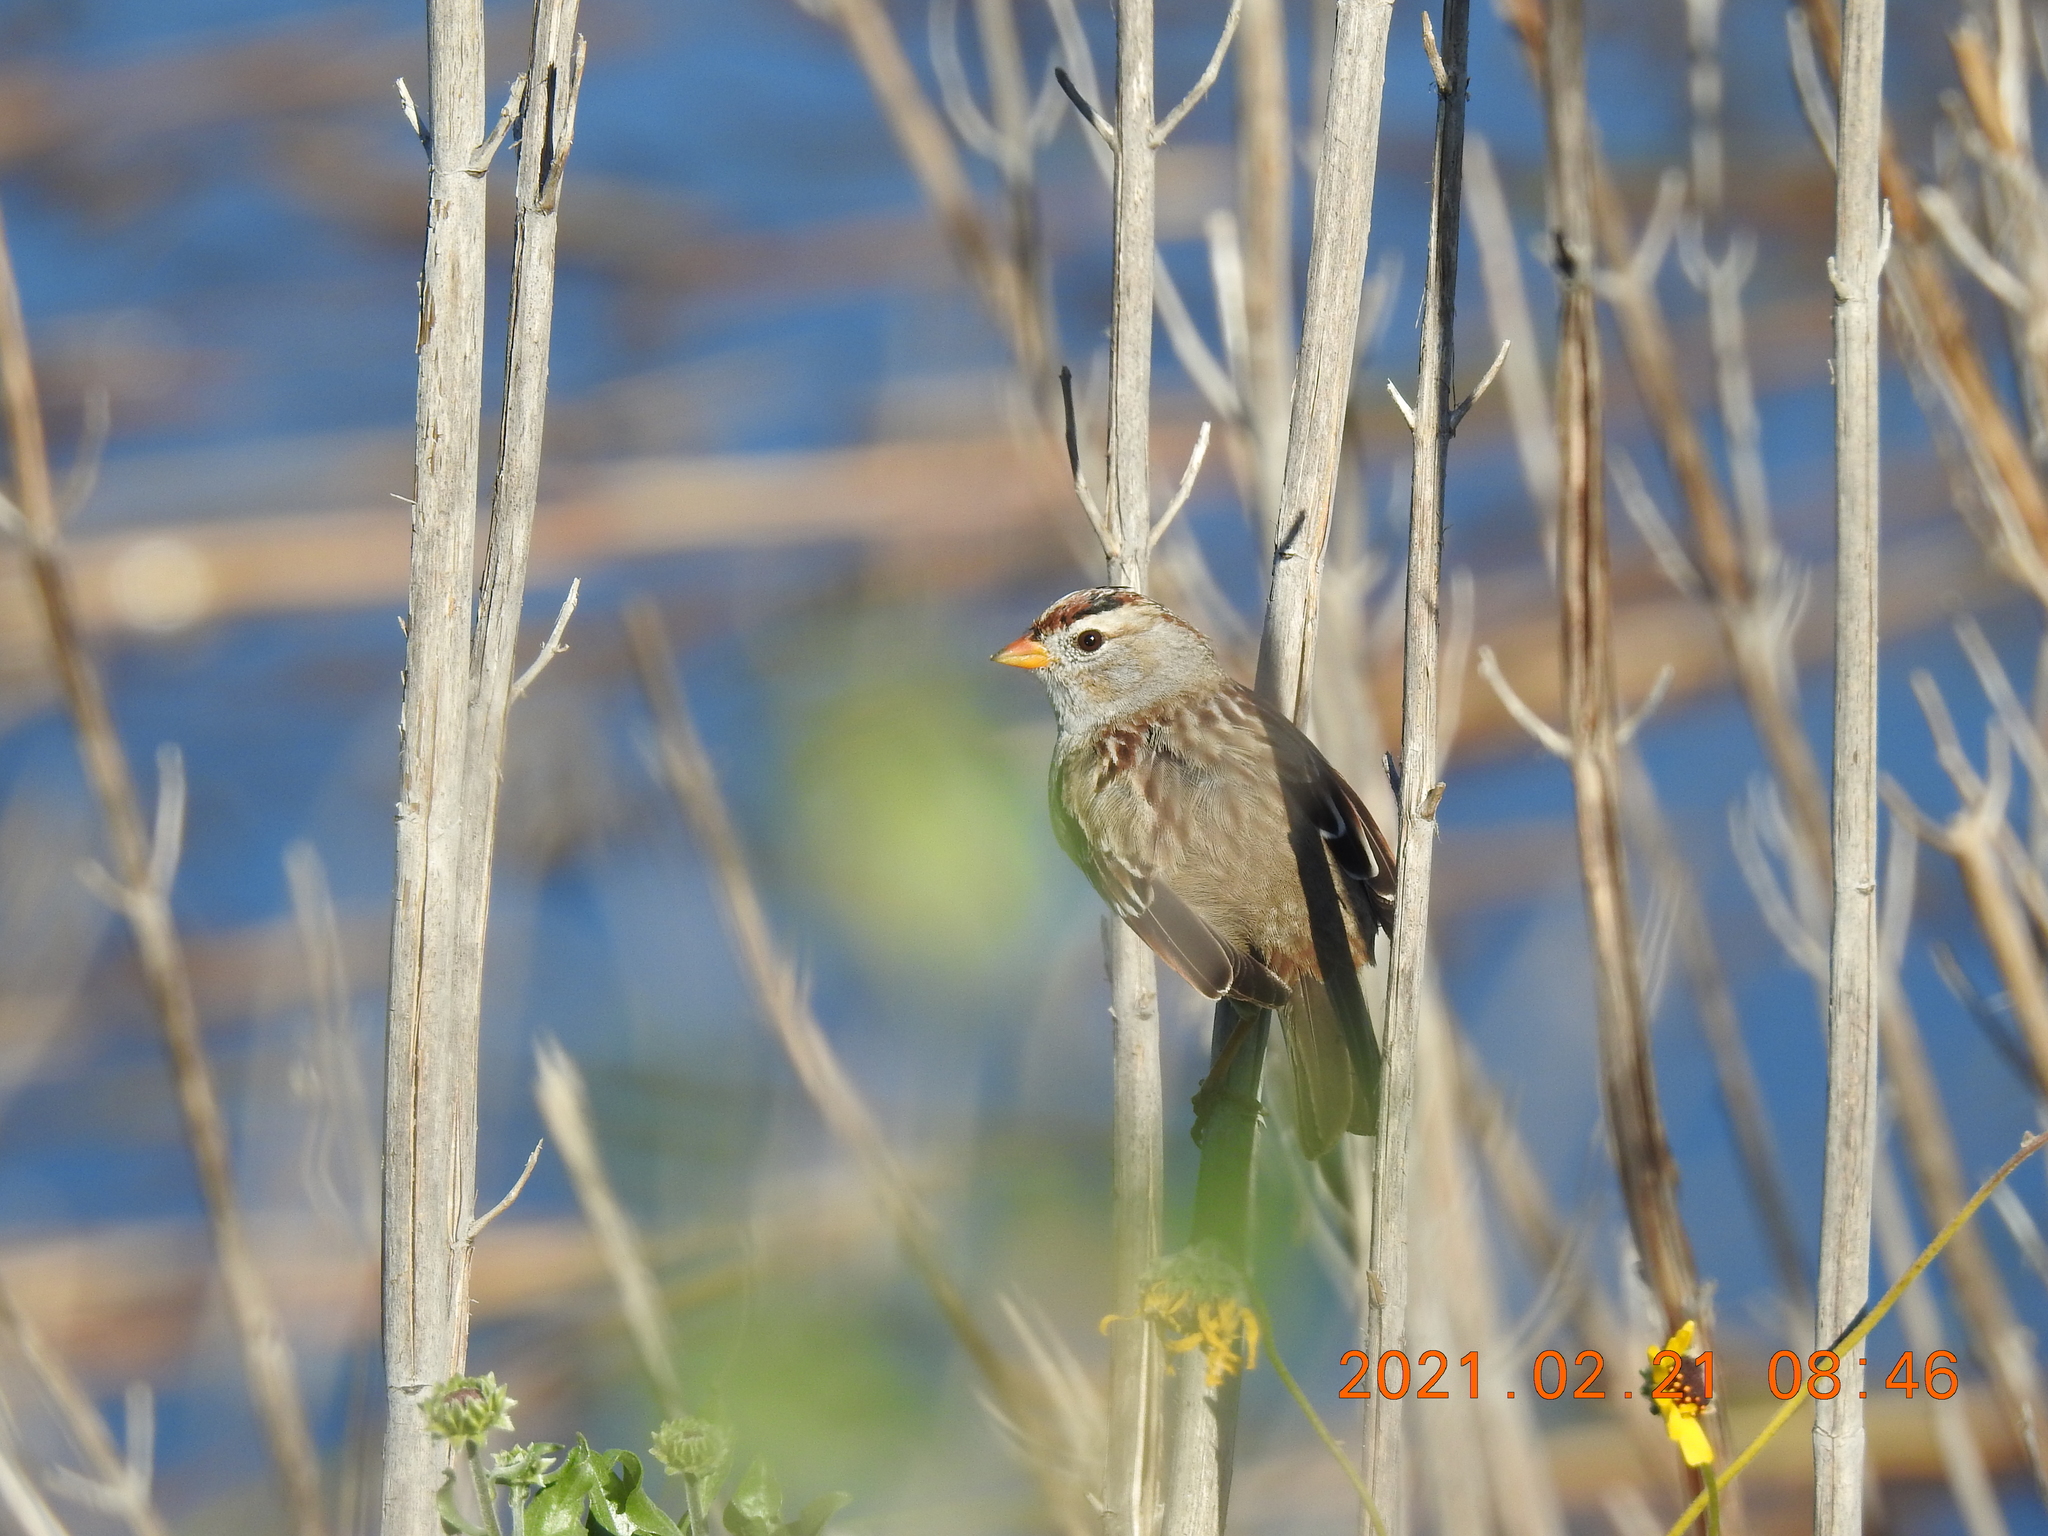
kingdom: Animalia
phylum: Chordata
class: Aves
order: Passeriformes
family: Passerellidae
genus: Zonotrichia
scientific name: Zonotrichia leucophrys
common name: White-crowned sparrow
